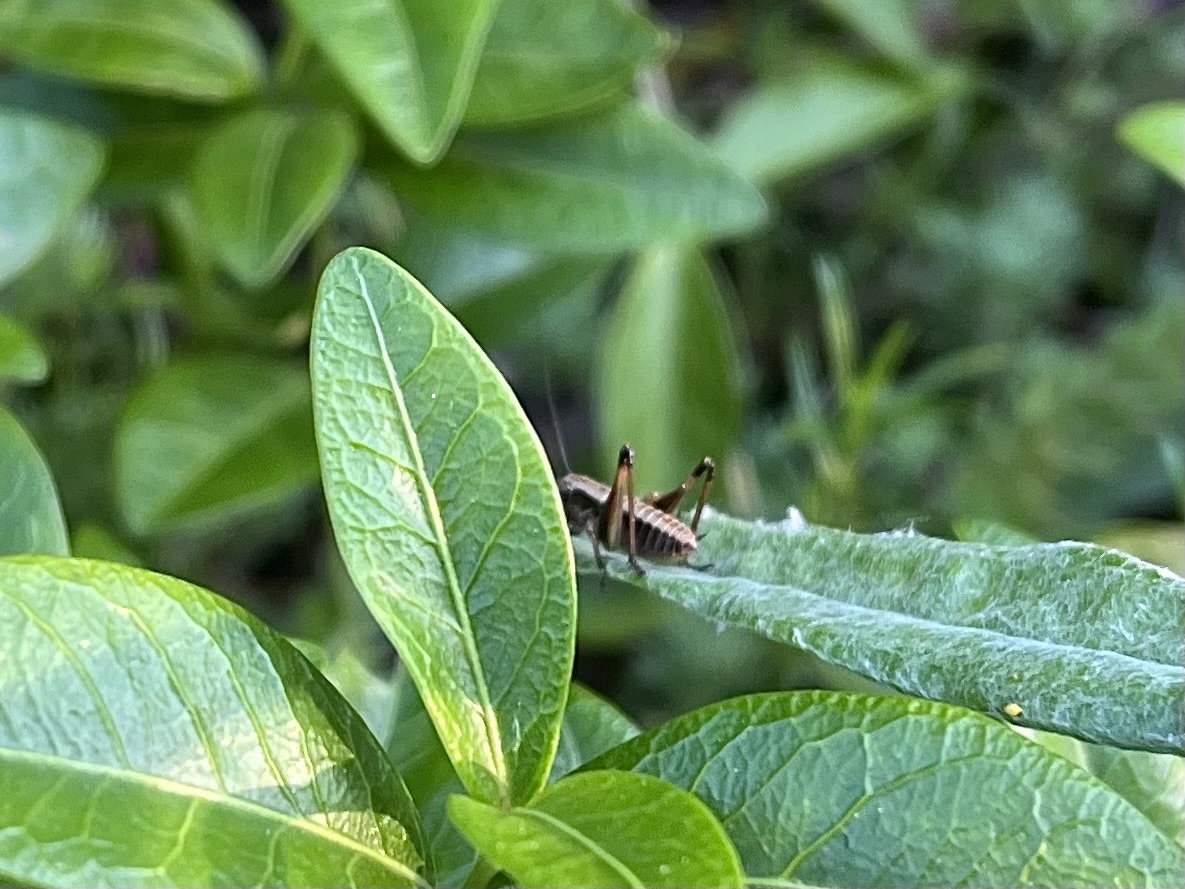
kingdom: Animalia
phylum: Arthropoda
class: Insecta
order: Orthoptera
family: Tettigoniidae
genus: Pholidoptera
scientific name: Pholidoptera griseoaptera
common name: Dark bush-cricket
